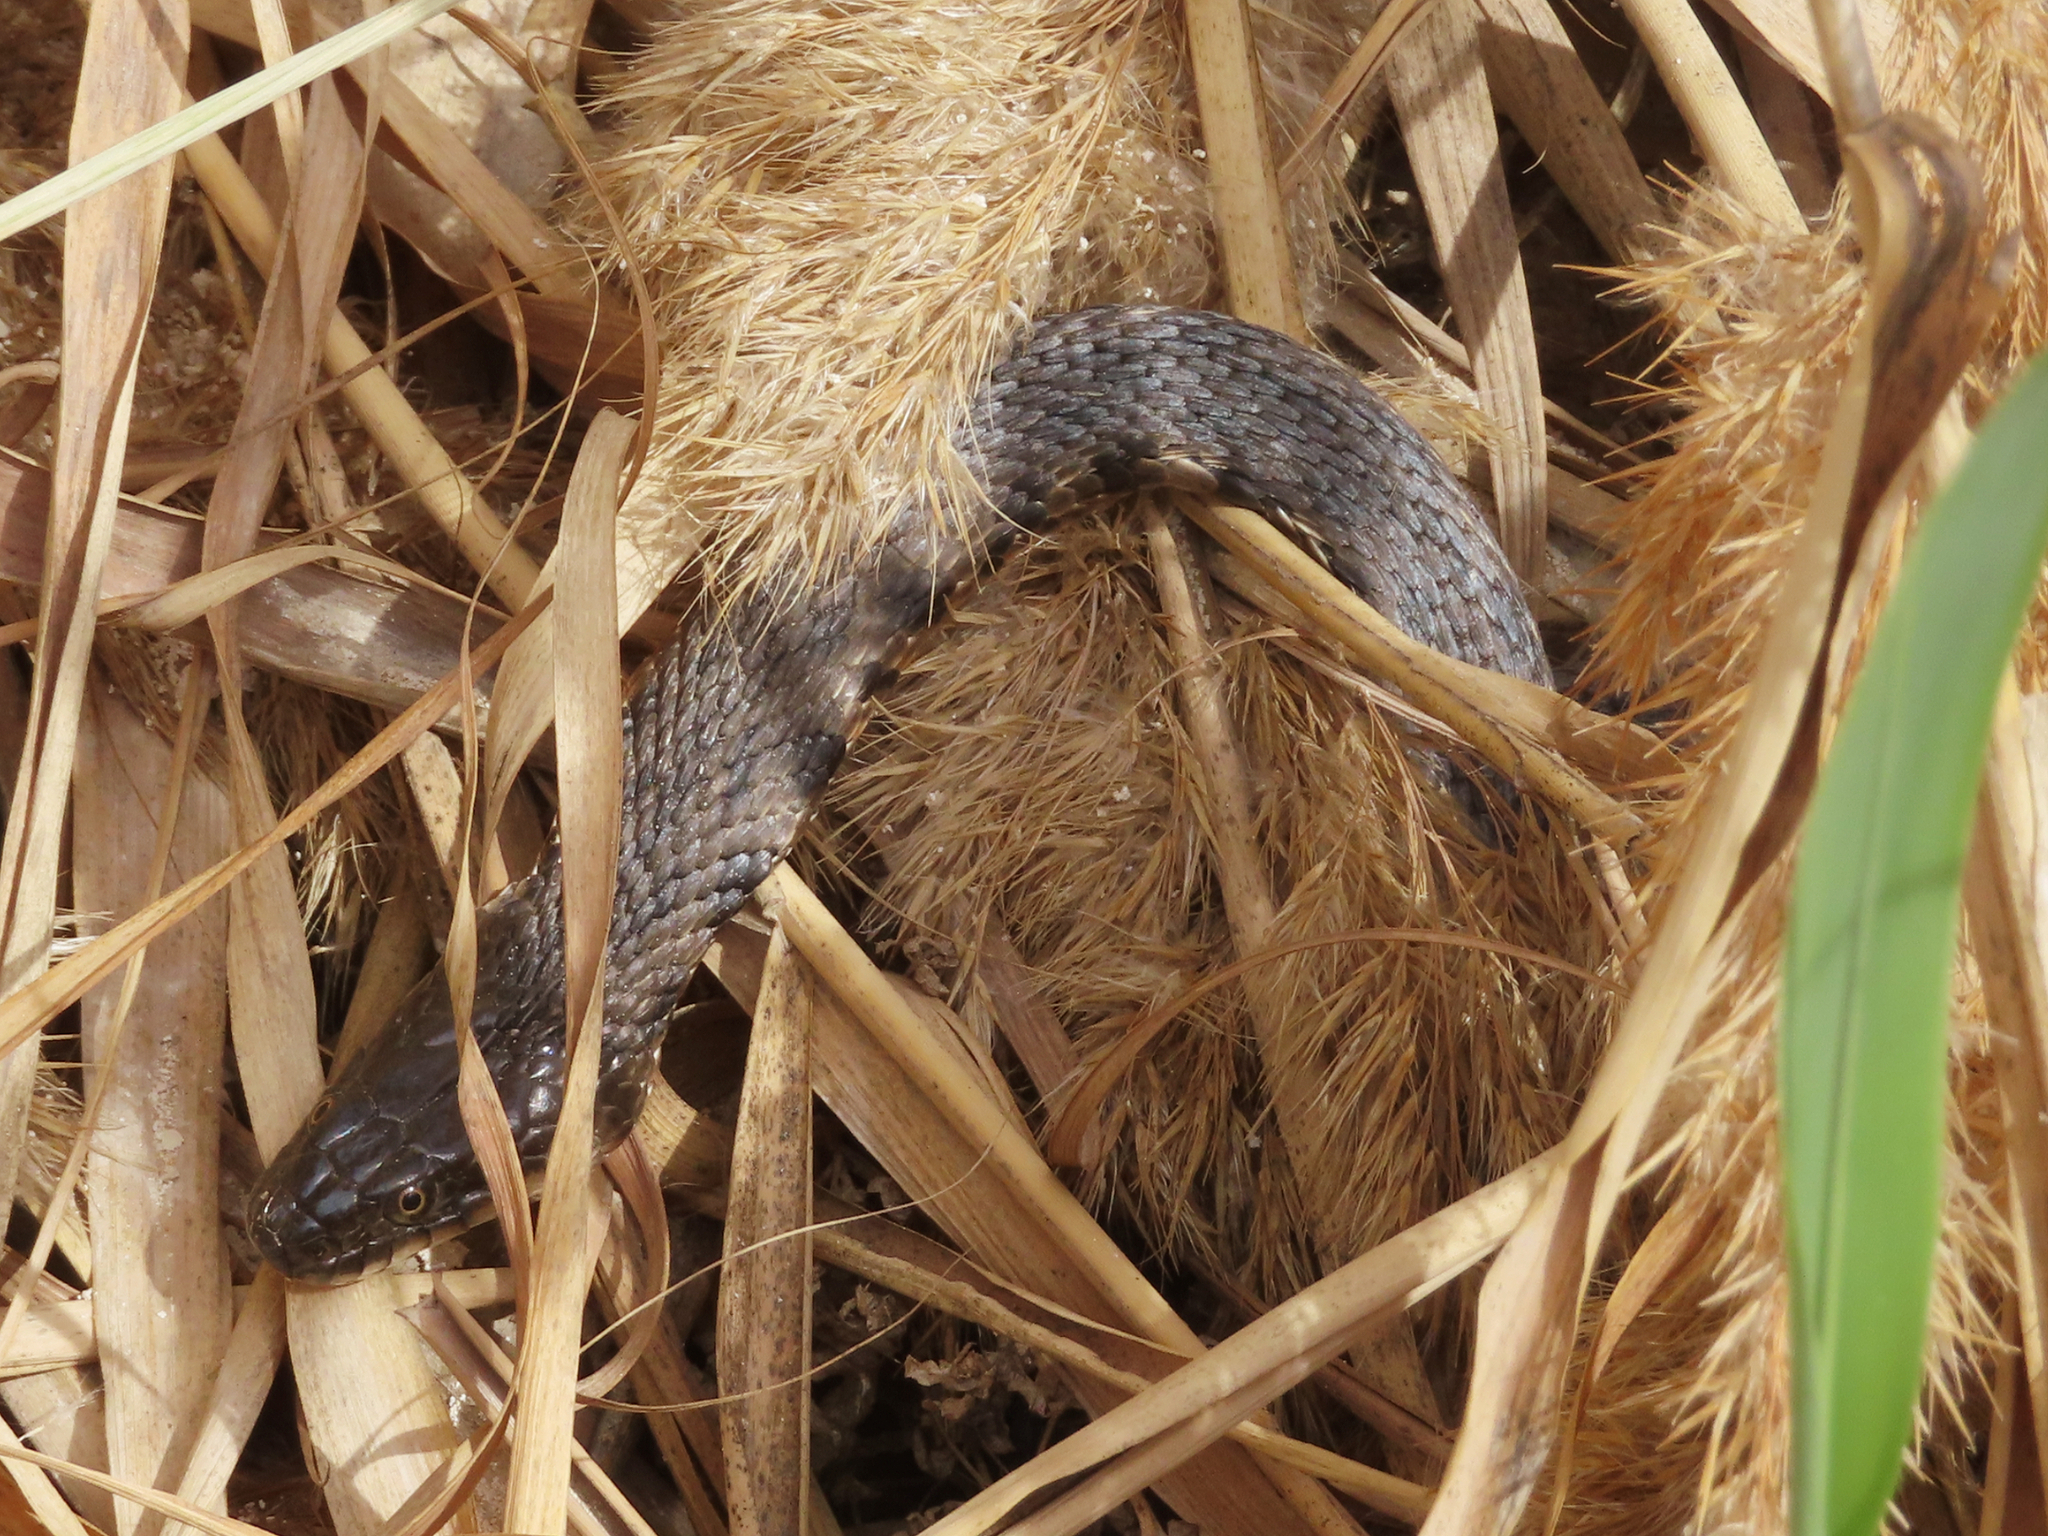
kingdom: Animalia
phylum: Chordata
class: Squamata
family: Colubridae
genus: Natrix
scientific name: Natrix tessellata
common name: Dice snake
